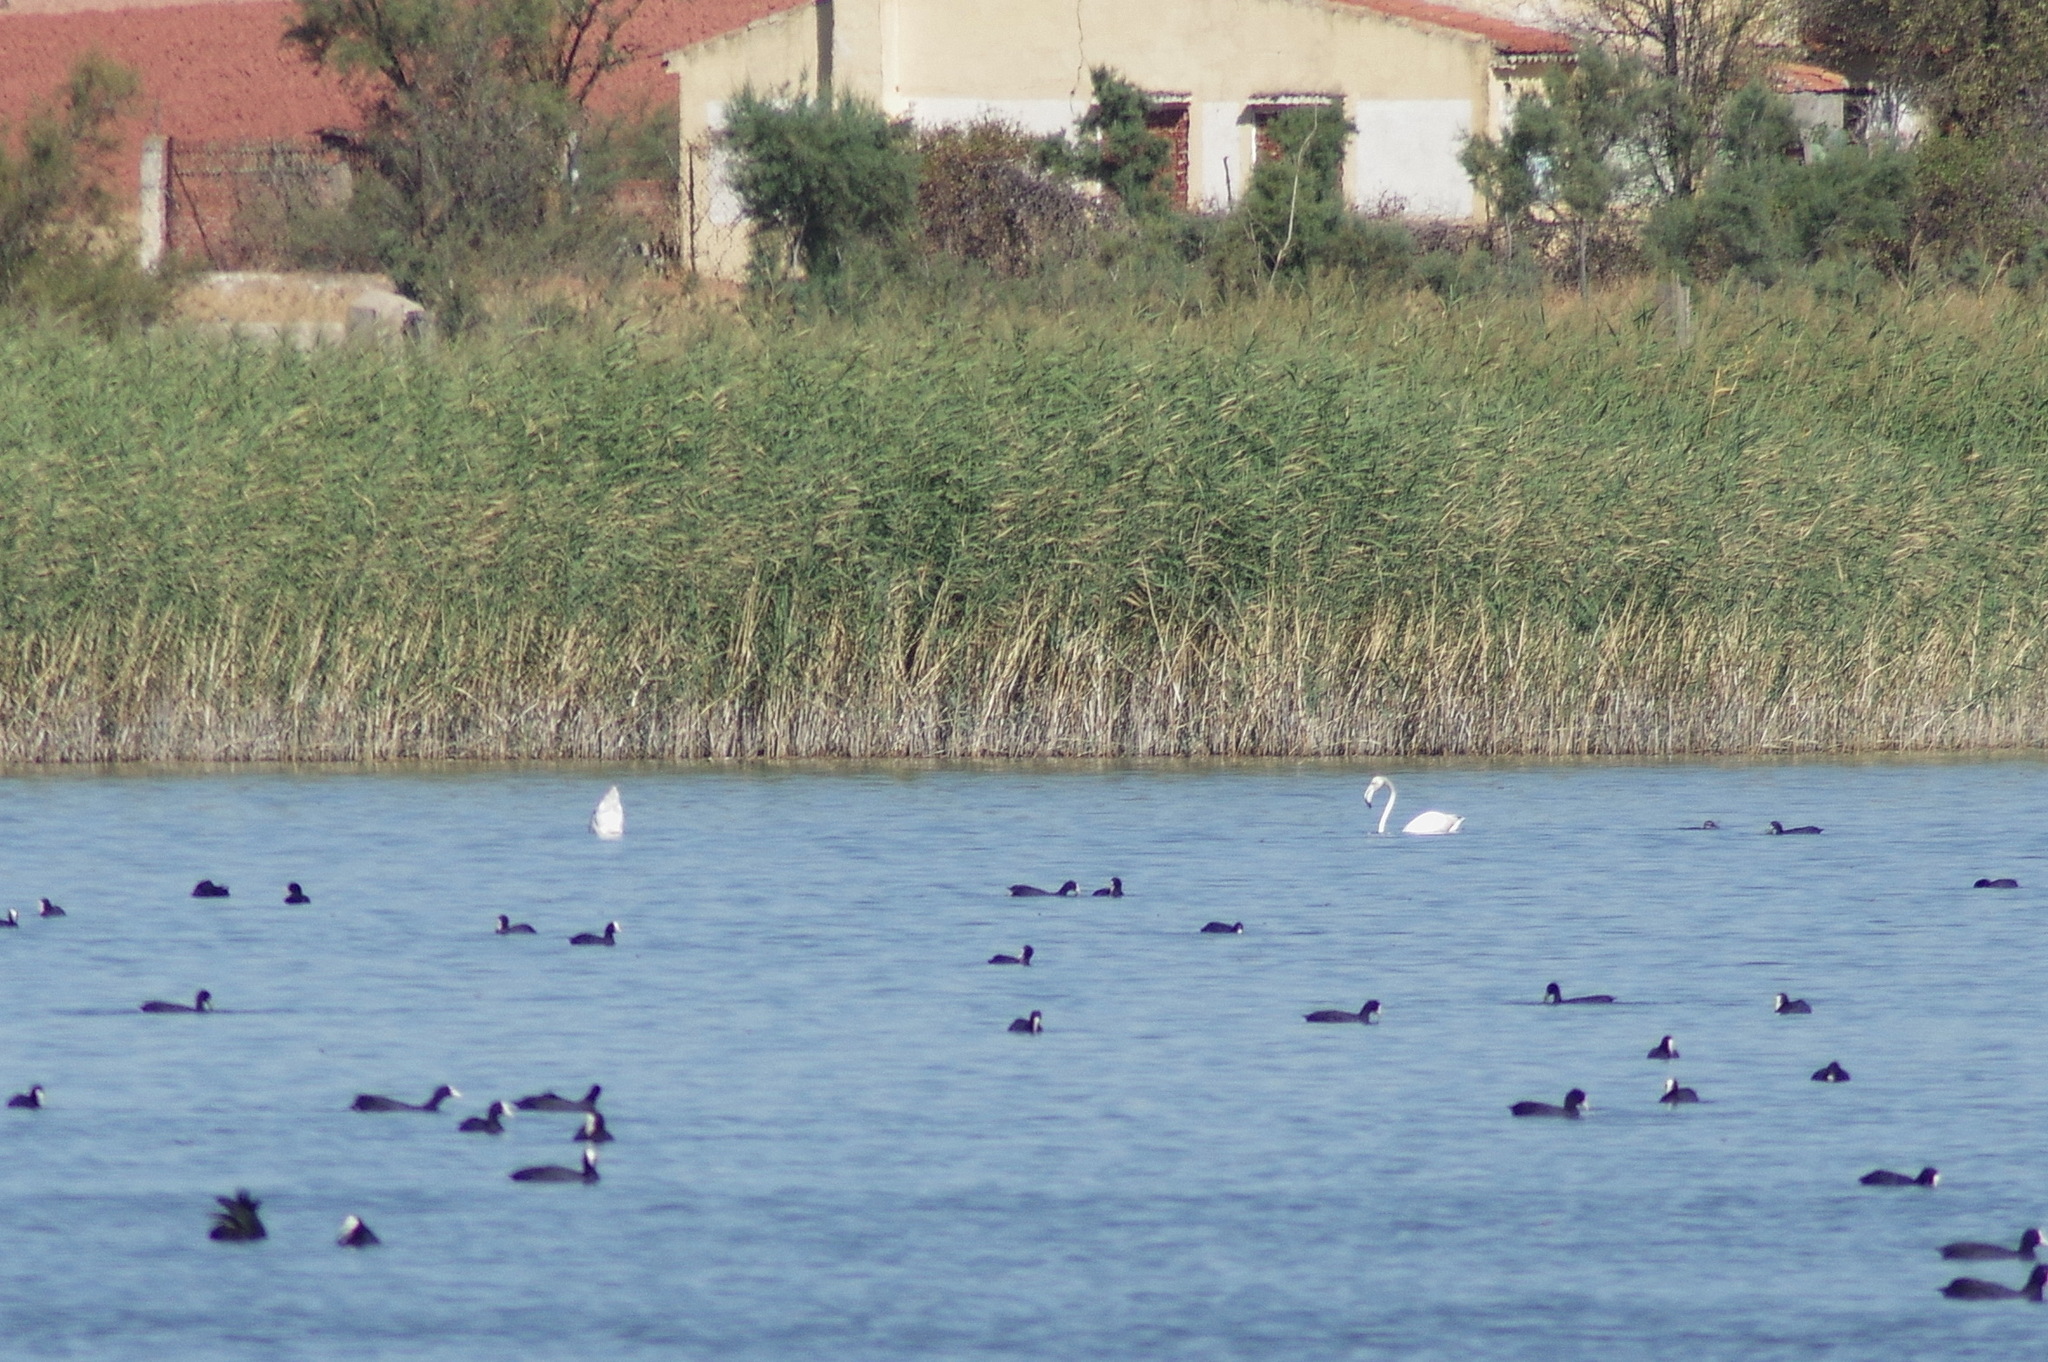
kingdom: Animalia
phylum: Chordata
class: Aves
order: Phoenicopteriformes
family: Phoenicopteridae
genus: Phoenicopterus
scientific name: Phoenicopterus roseus
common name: Greater flamingo
